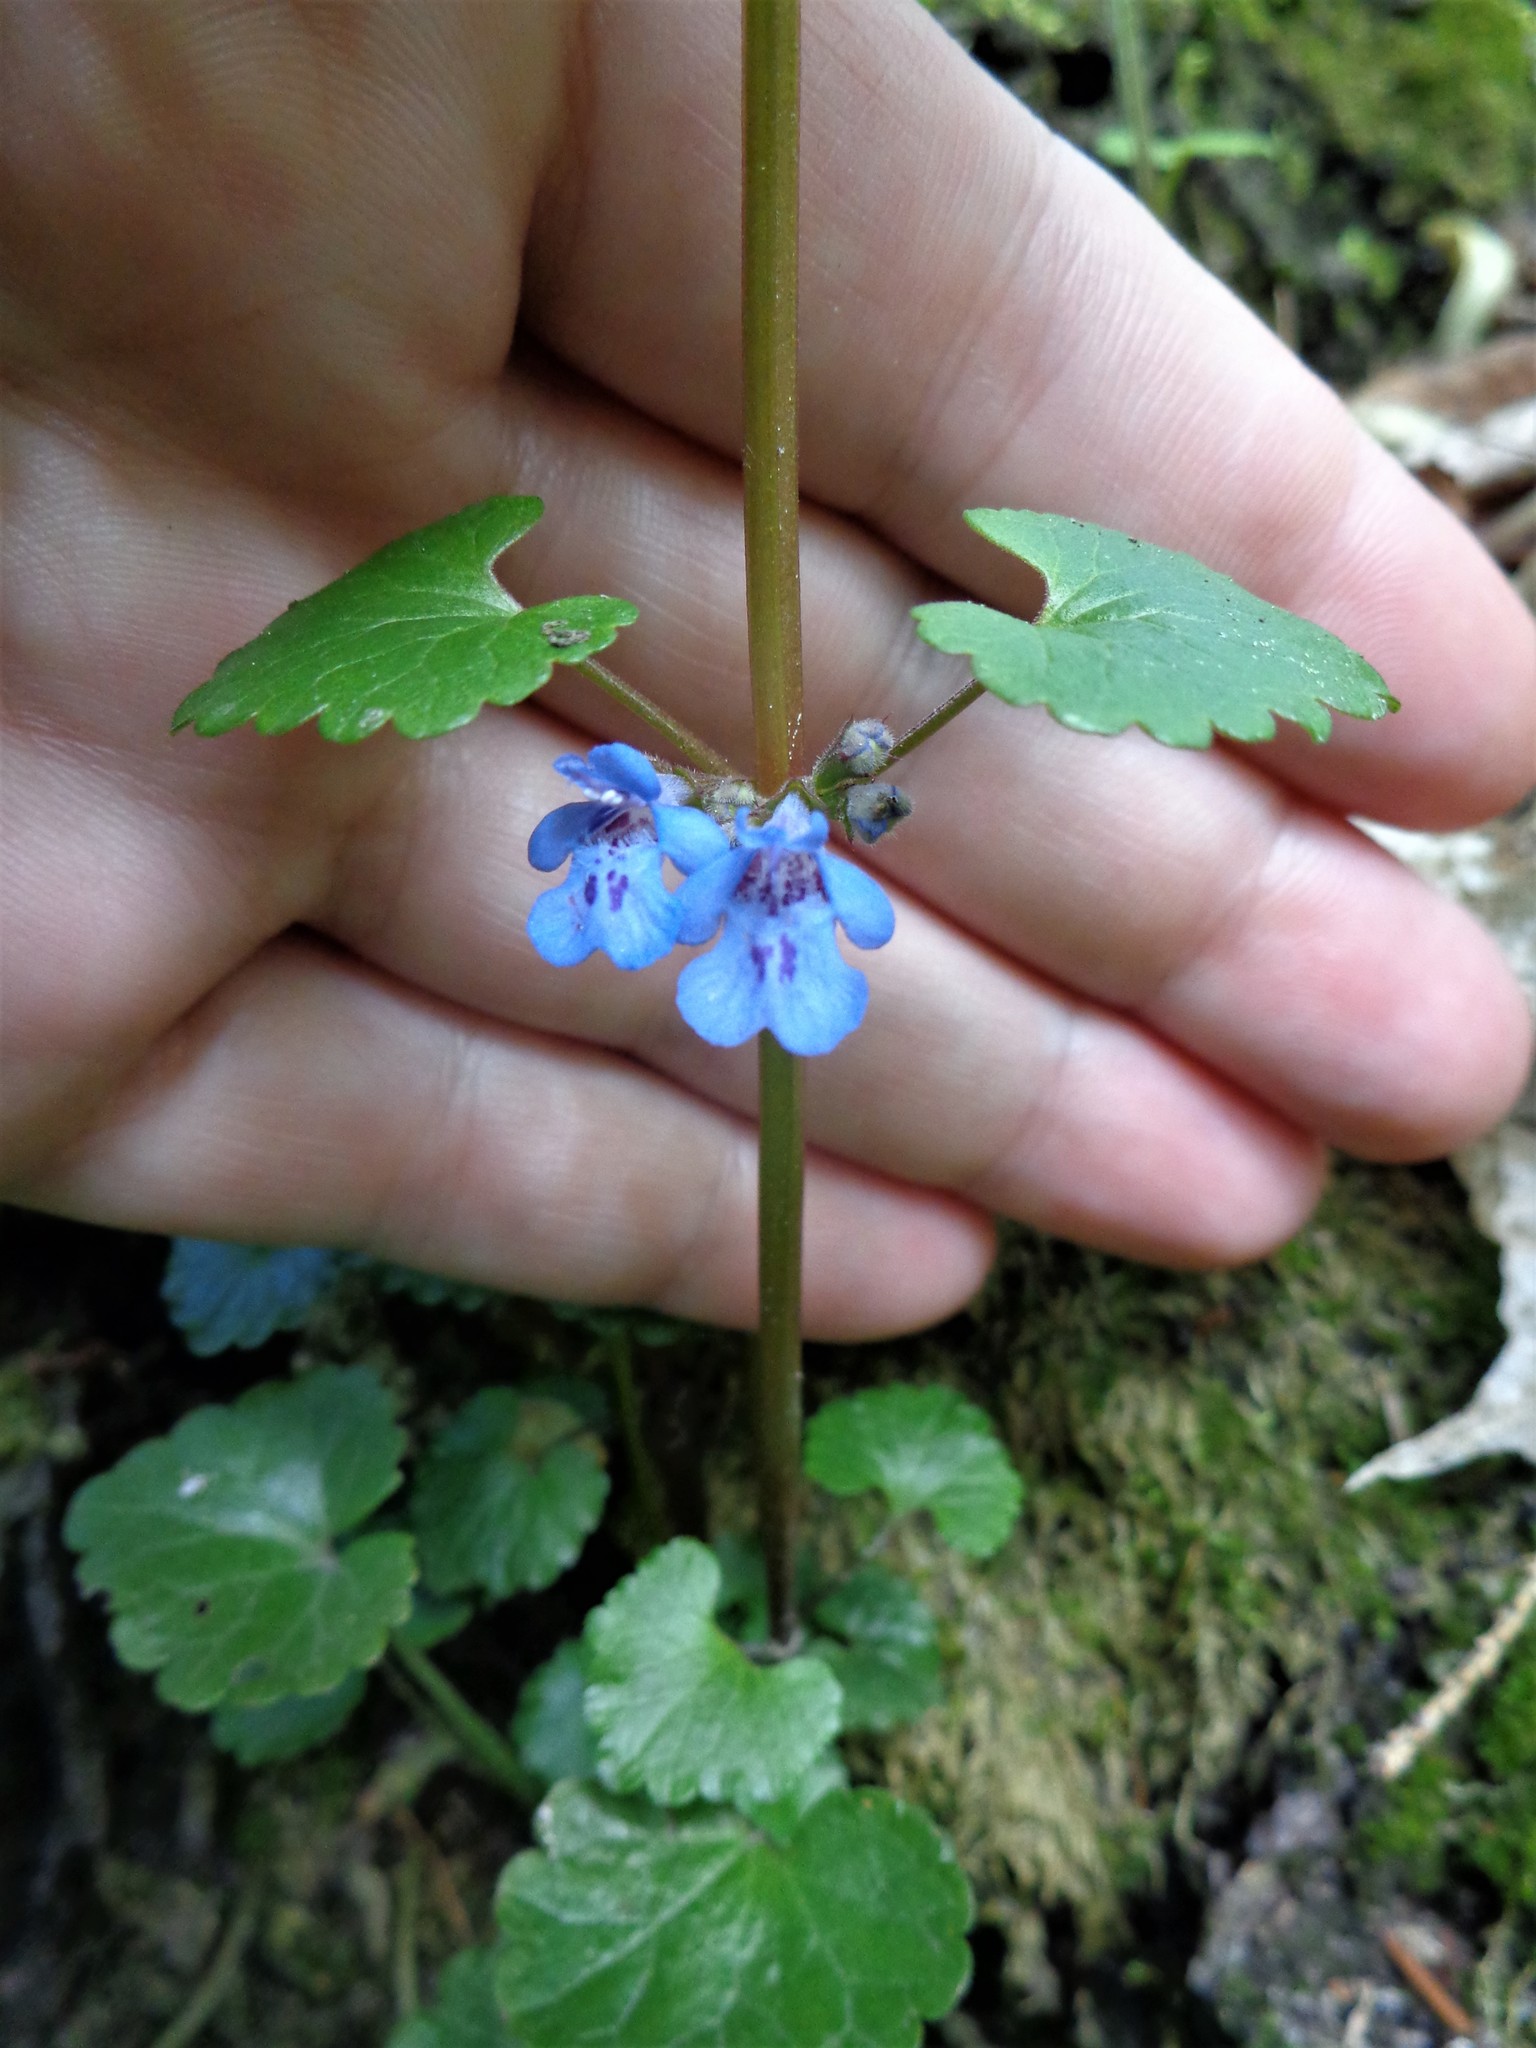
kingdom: Plantae
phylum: Tracheophyta
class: Magnoliopsida
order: Lamiales
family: Lamiaceae
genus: Glechoma
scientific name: Glechoma hederacea
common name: Ground ivy
